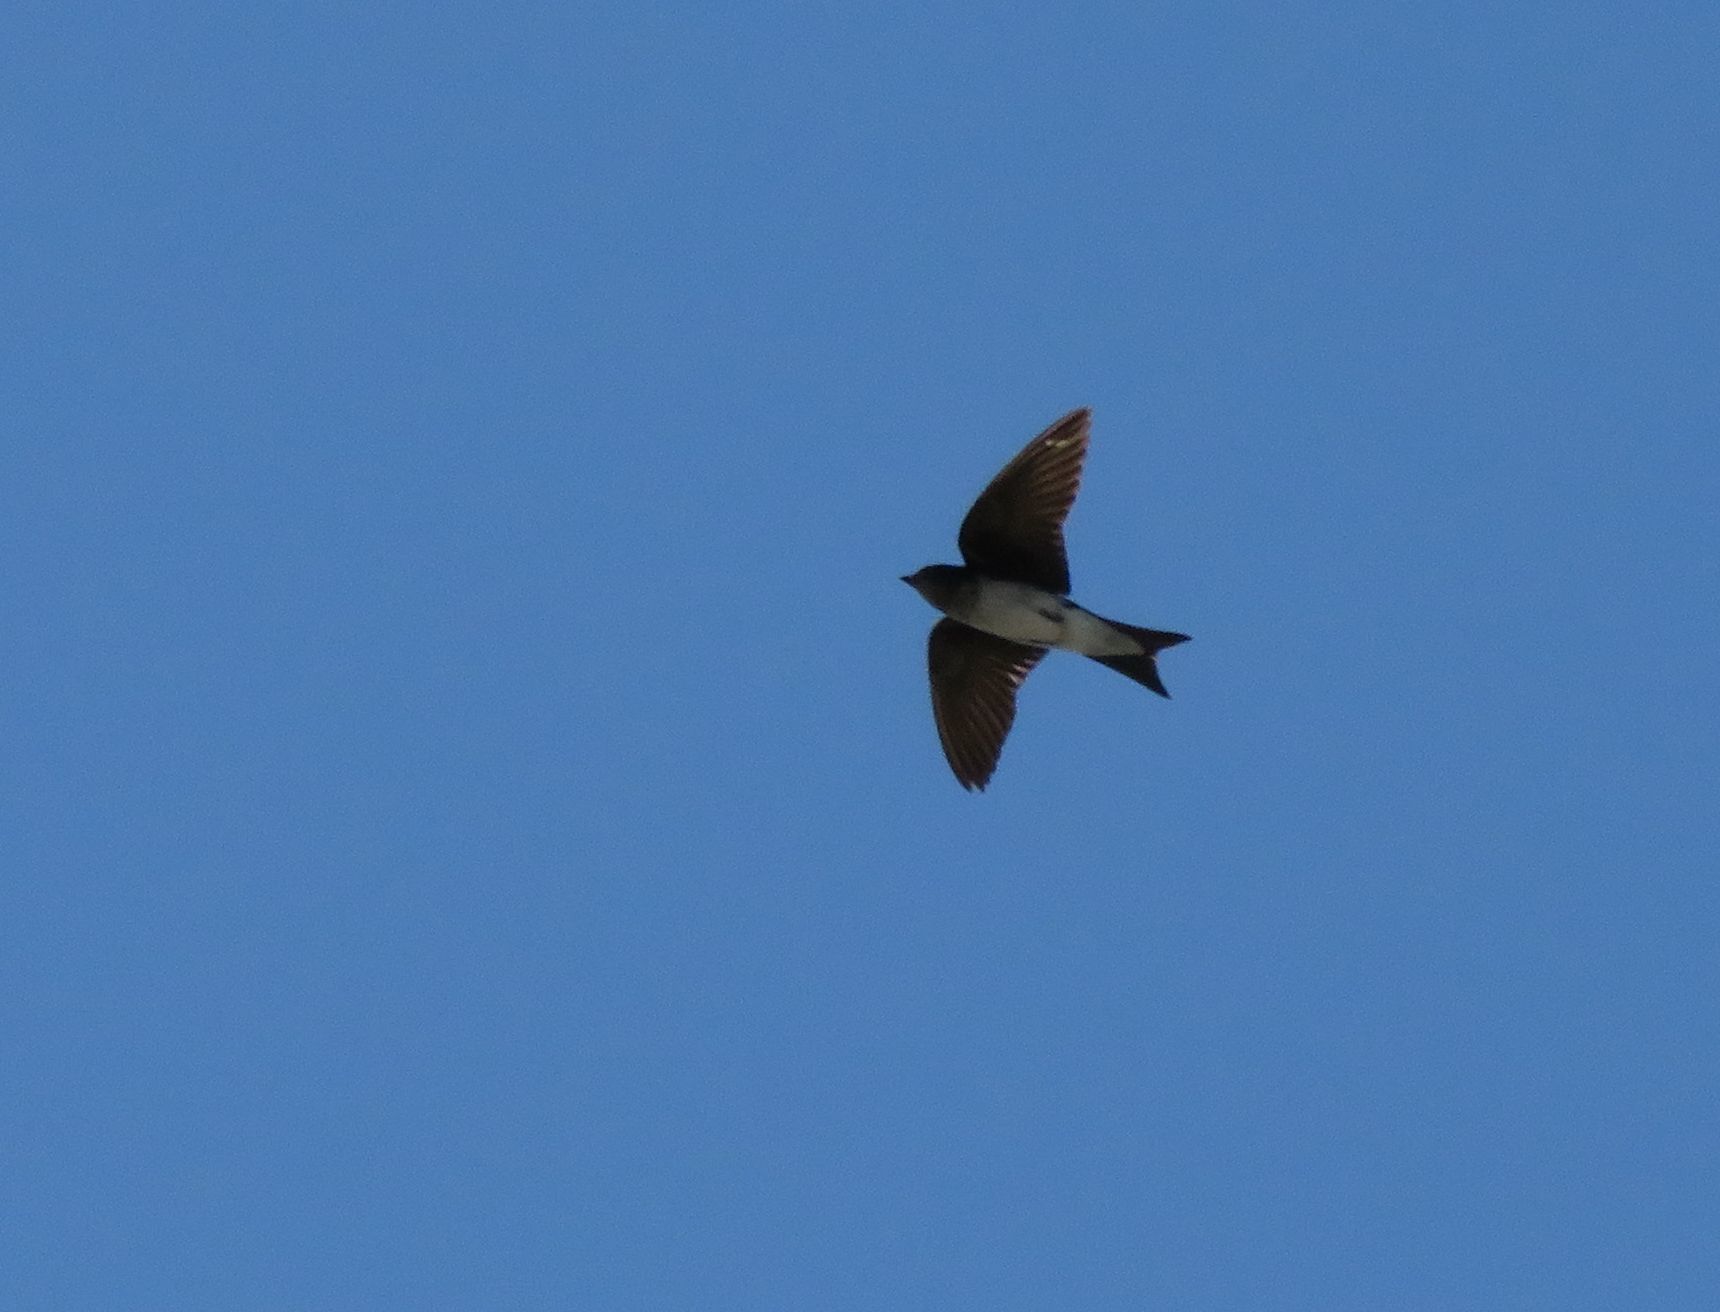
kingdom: Animalia
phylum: Chordata
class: Aves
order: Passeriformes
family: Hirundinidae
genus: Progne
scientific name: Progne chalybea
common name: Grey-breasted martin
